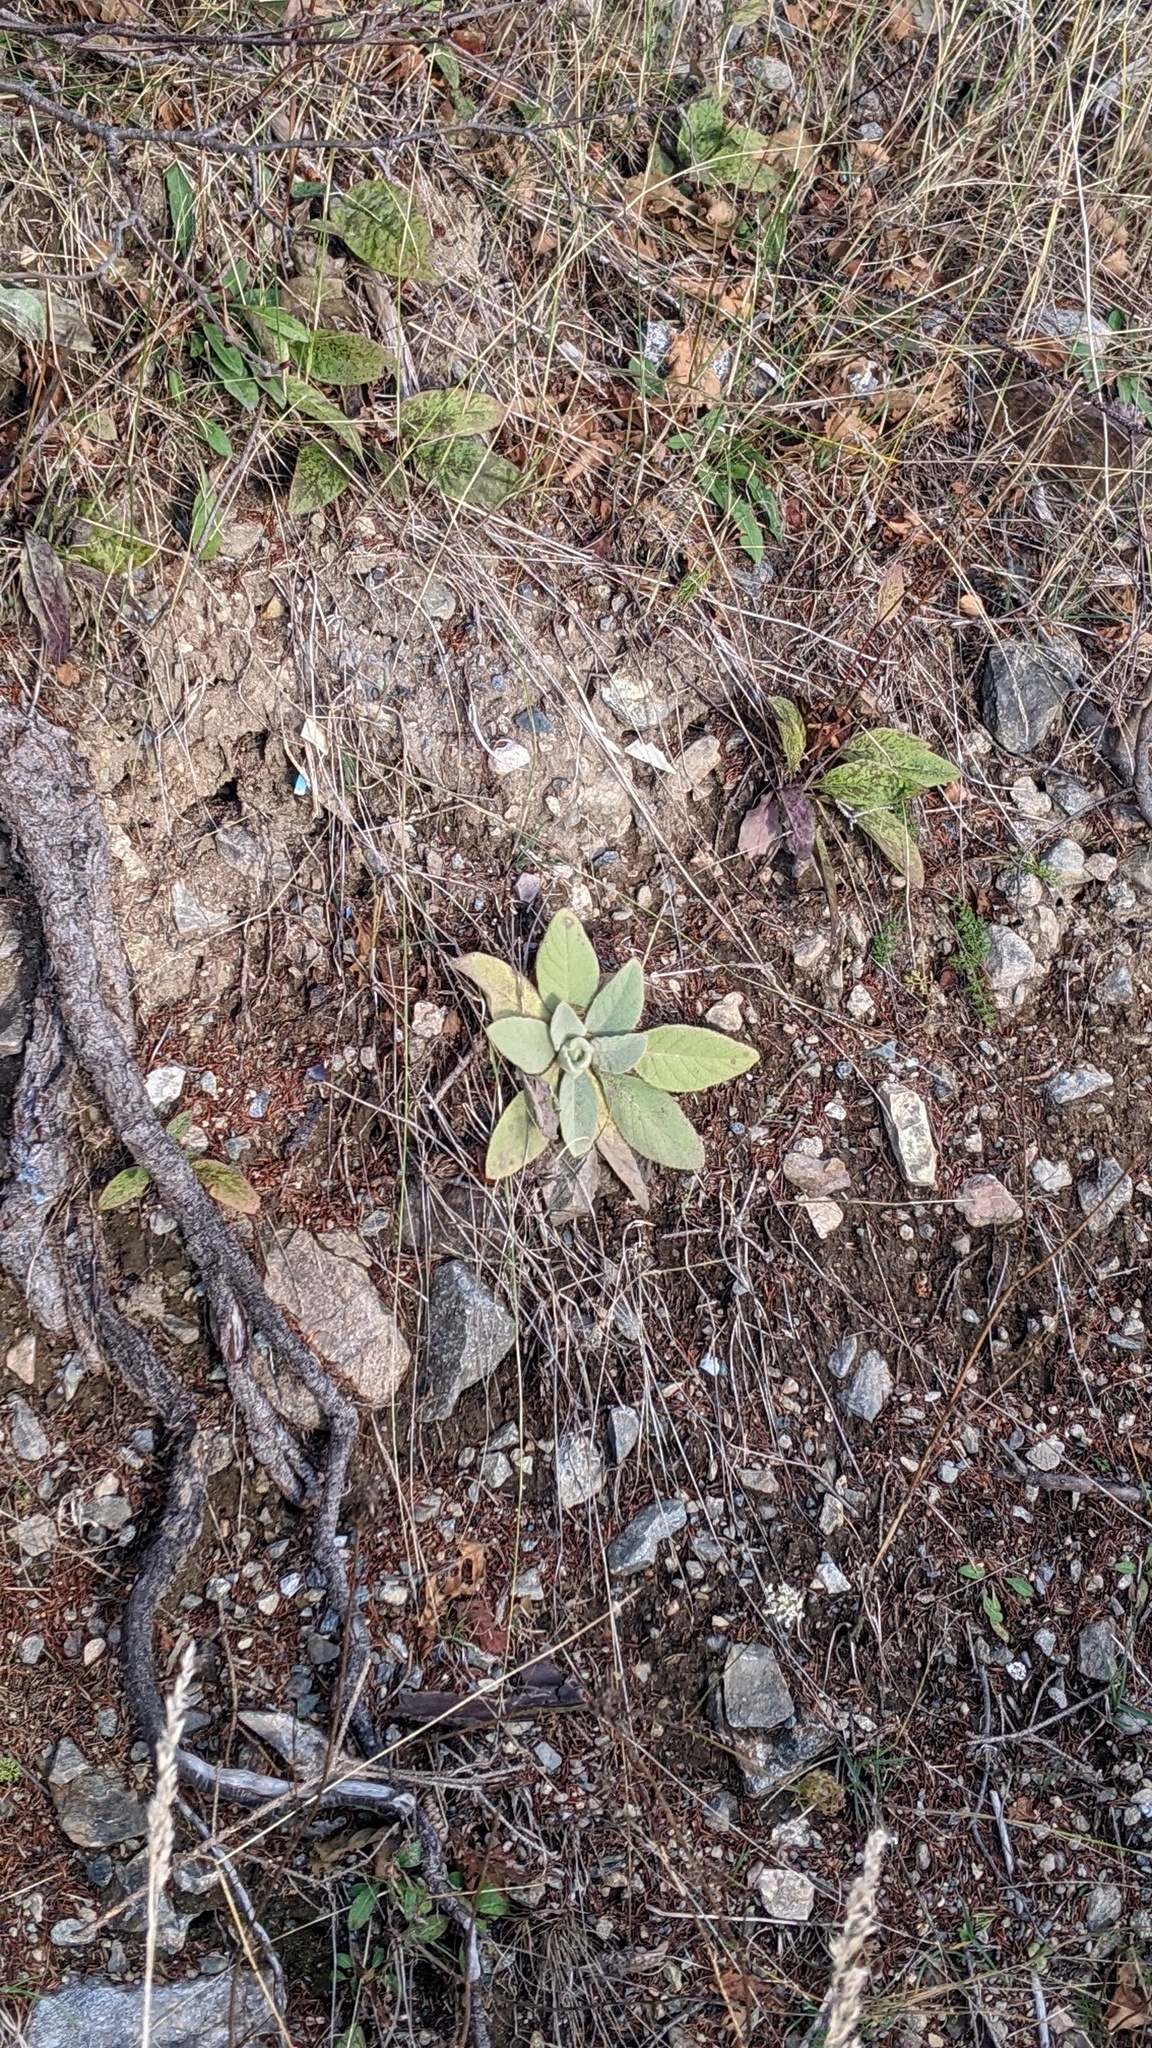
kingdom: Plantae
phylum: Tracheophyta
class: Magnoliopsida
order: Lamiales
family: Scrophulariaceae
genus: Verbascum
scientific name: Verbascum thapsus
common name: Common mullein
